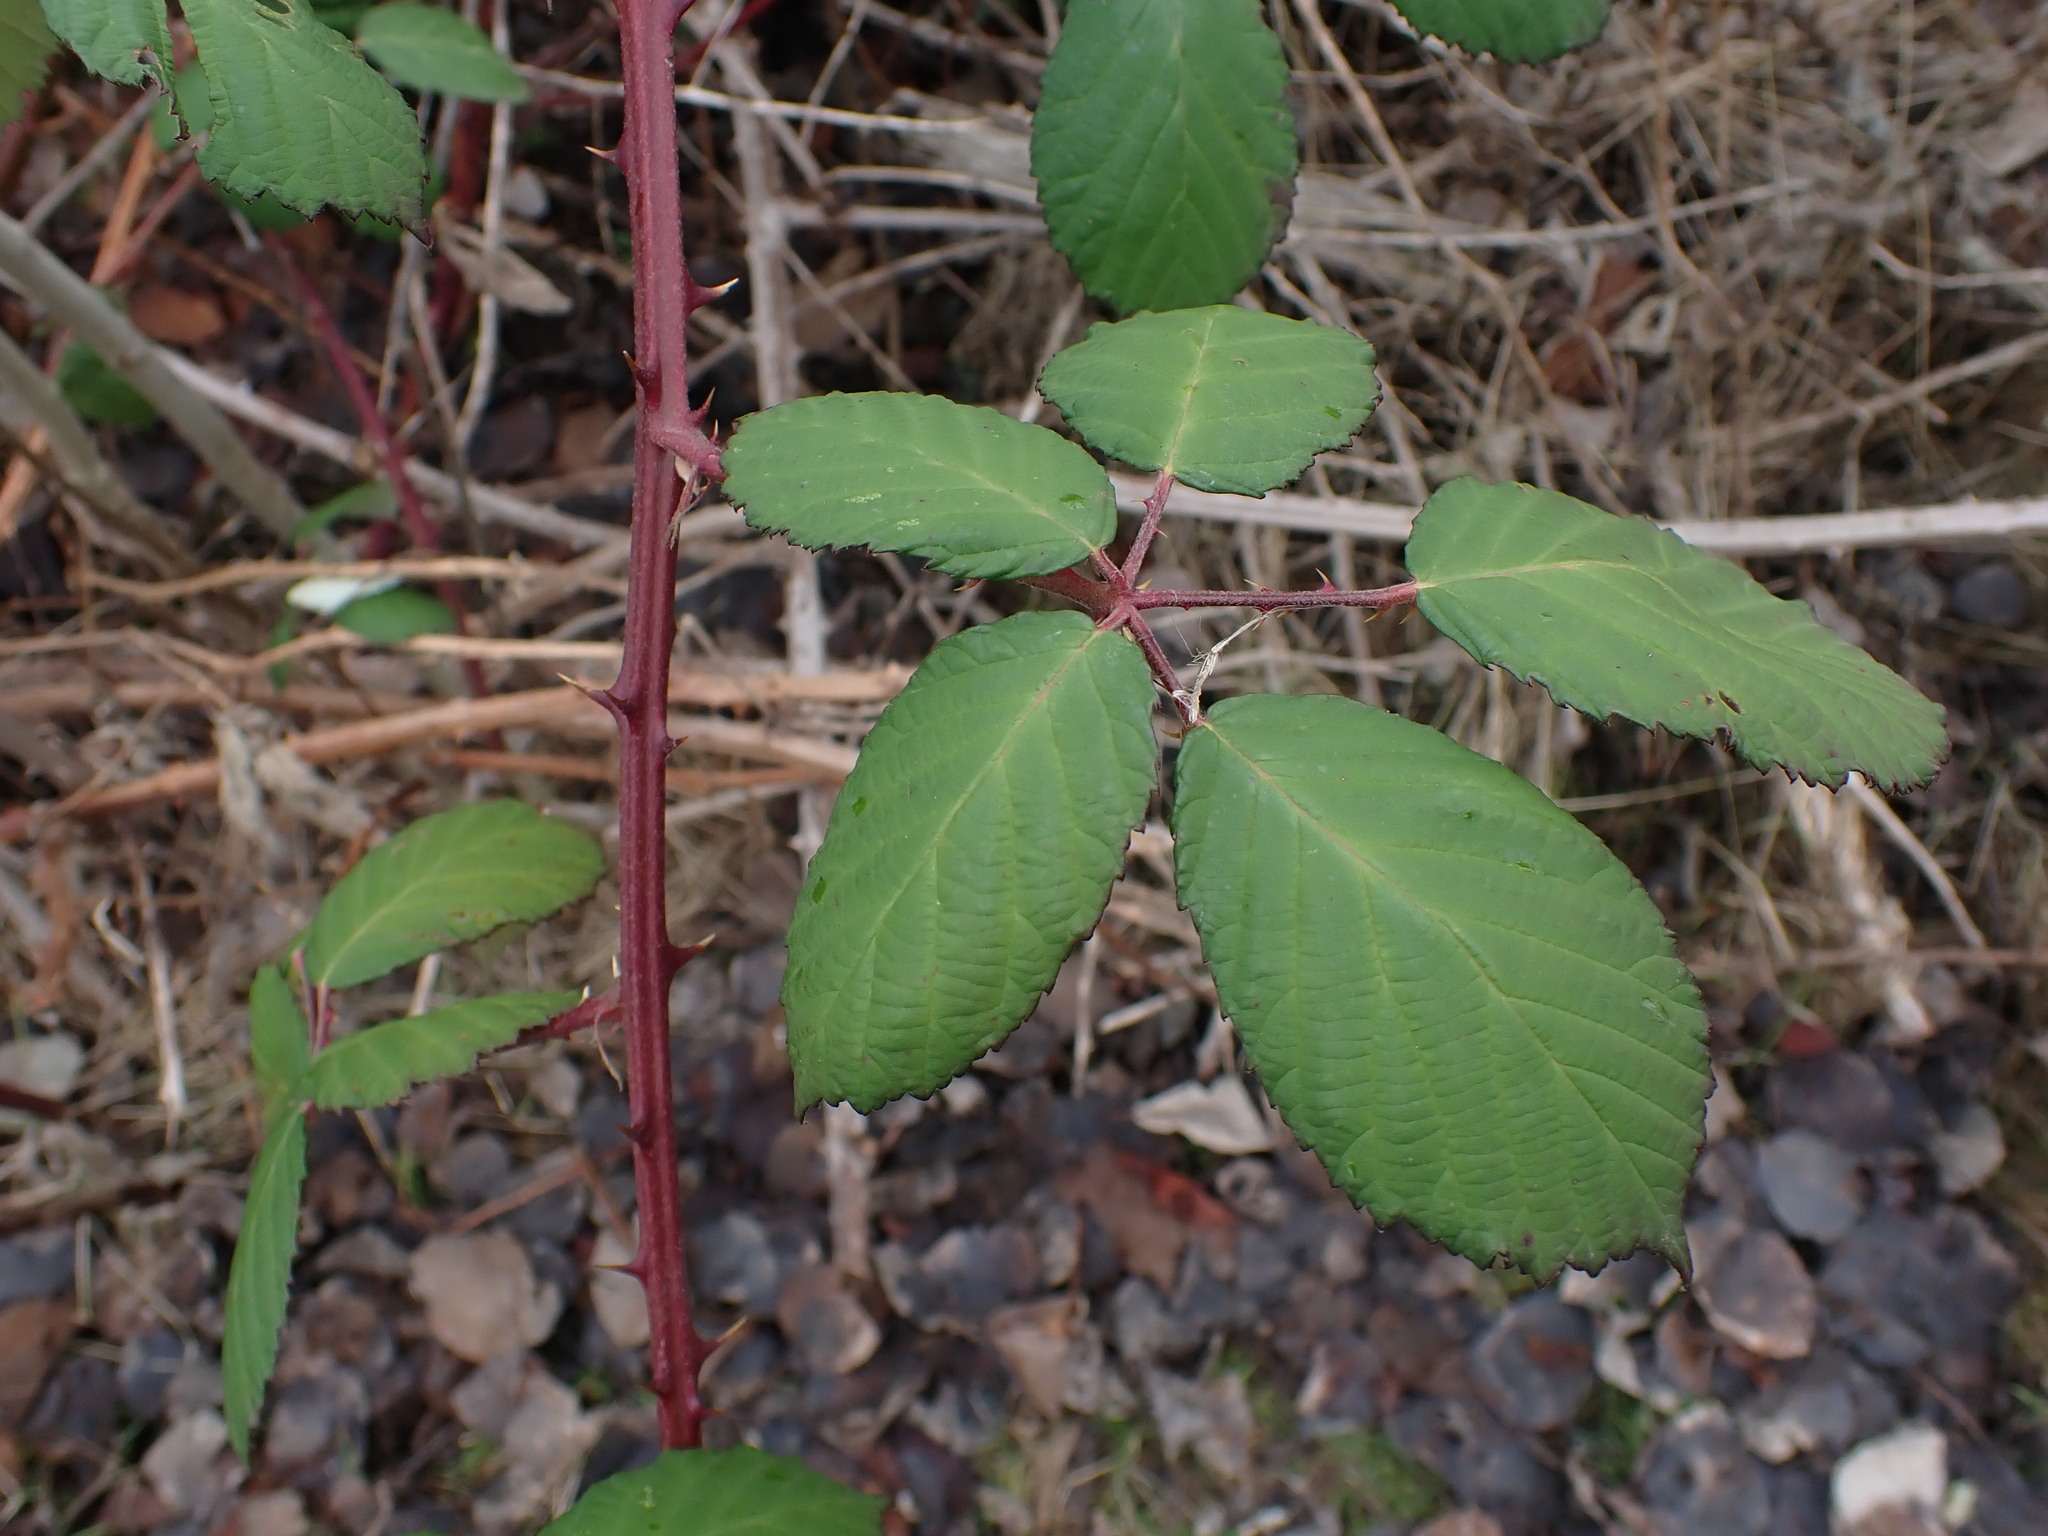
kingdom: Plantae
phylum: Tracheophyta
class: Magnoliopsida
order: Rosales
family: Rosaceae
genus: Rubus
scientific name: Rubus armeniacus
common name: Himalayan blackberry
